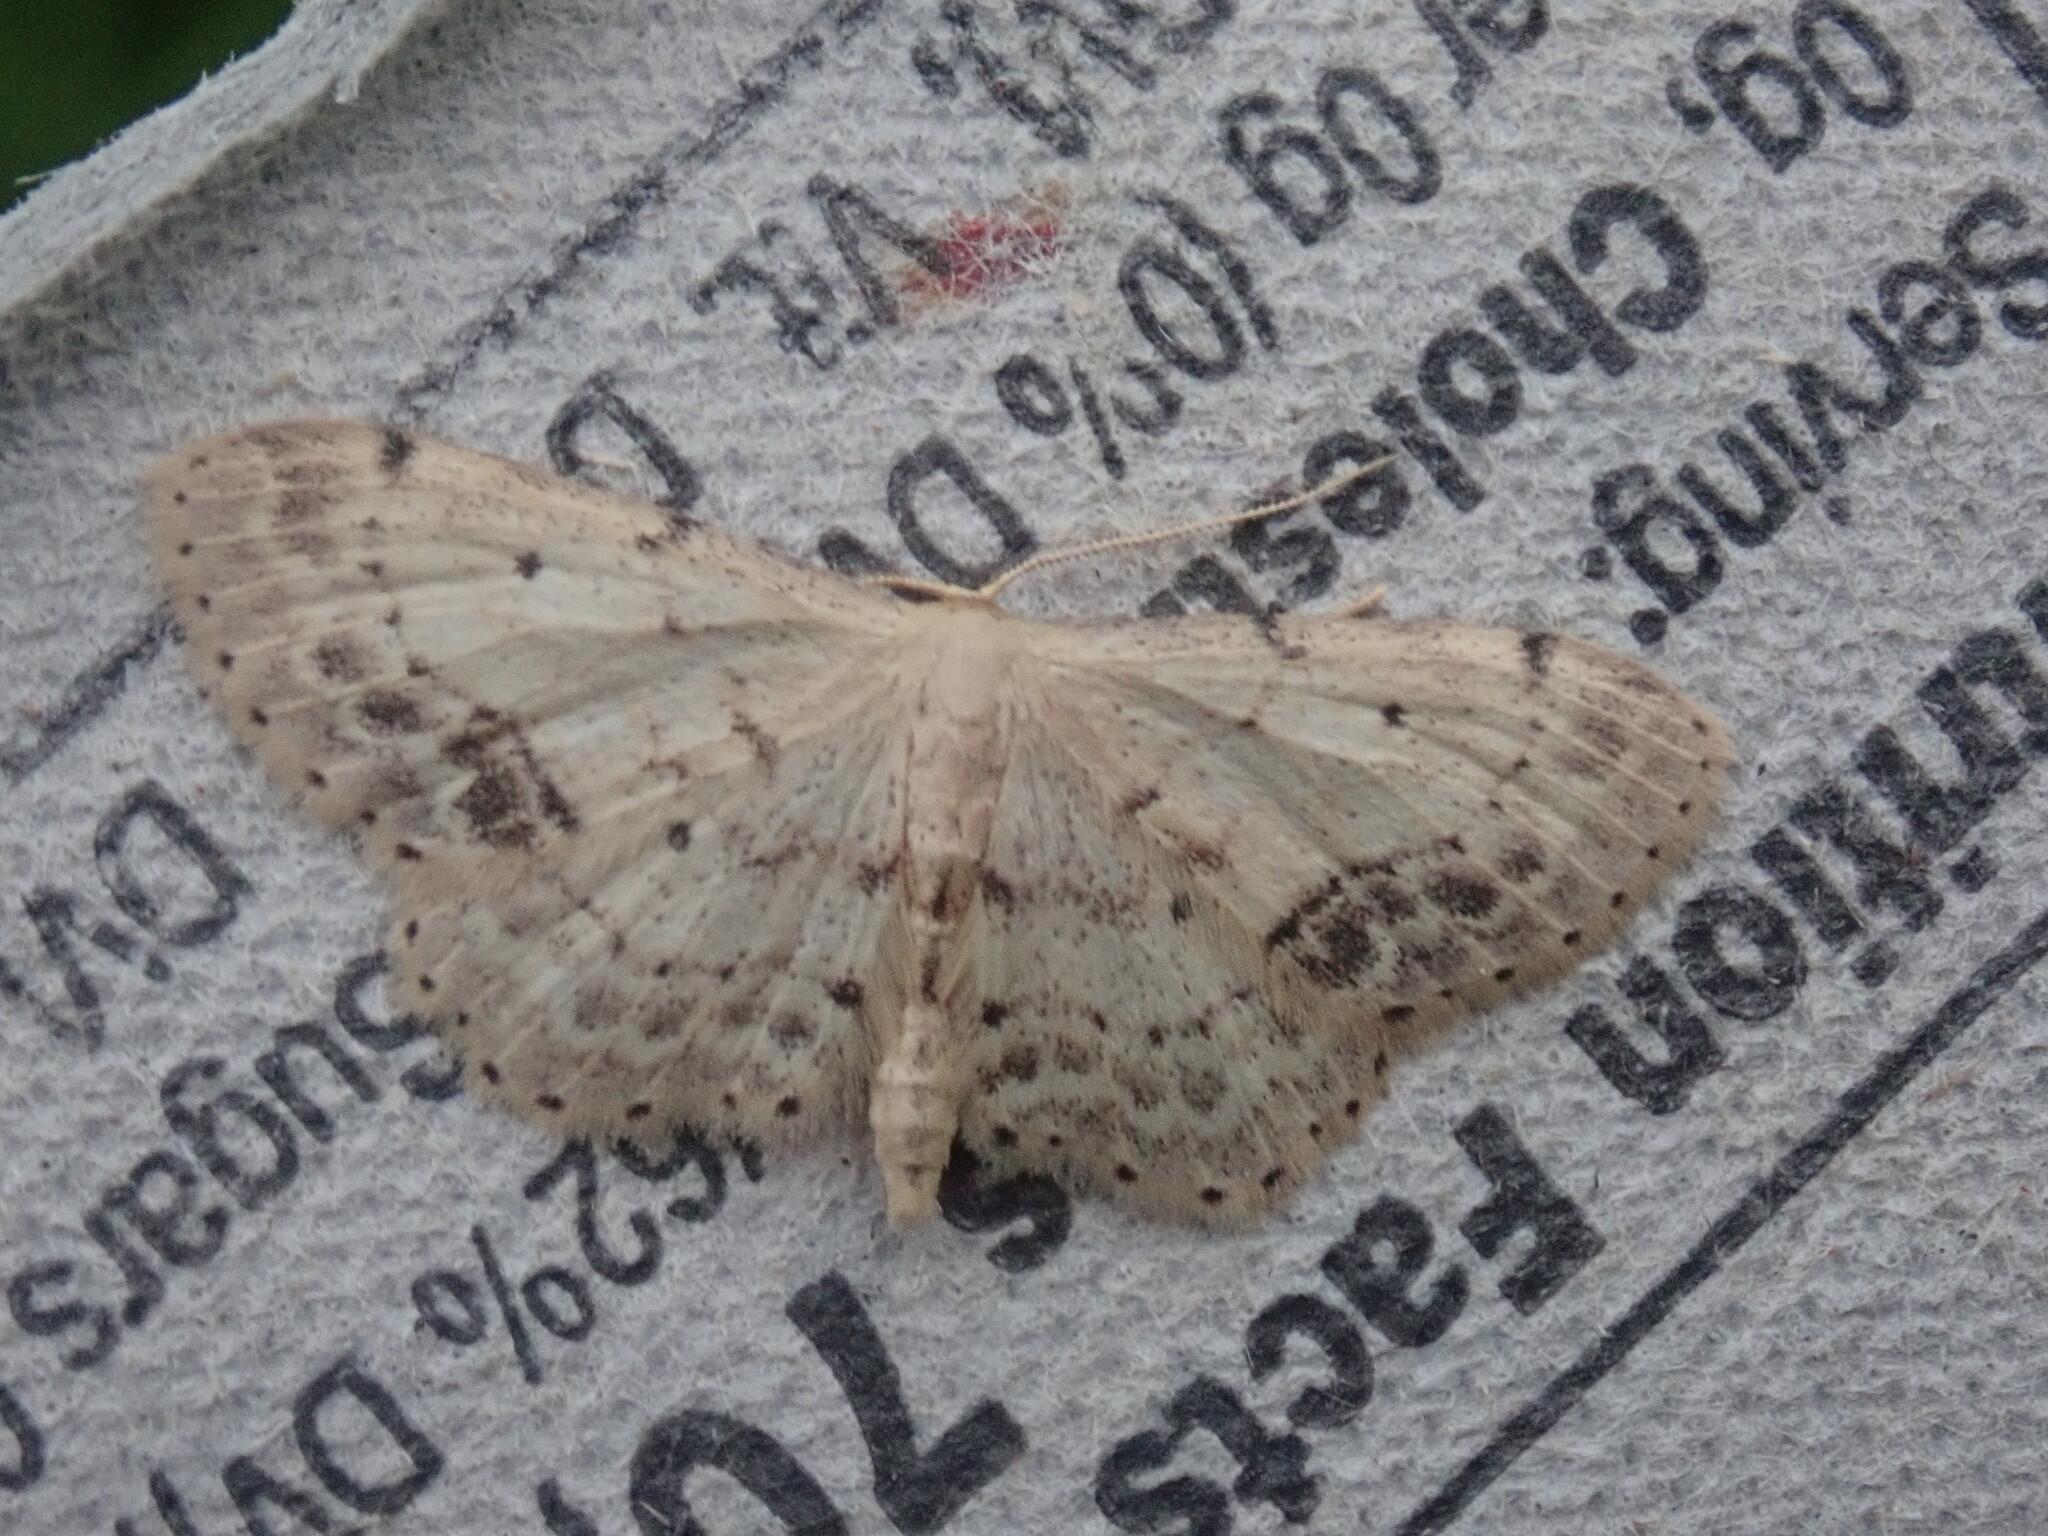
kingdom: Animalia
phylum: Arthropoda
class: Insecta
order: Lepidoptera
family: Geometridae
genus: Idaea
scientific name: Idaea dimidiata
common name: Single-dotted wave
